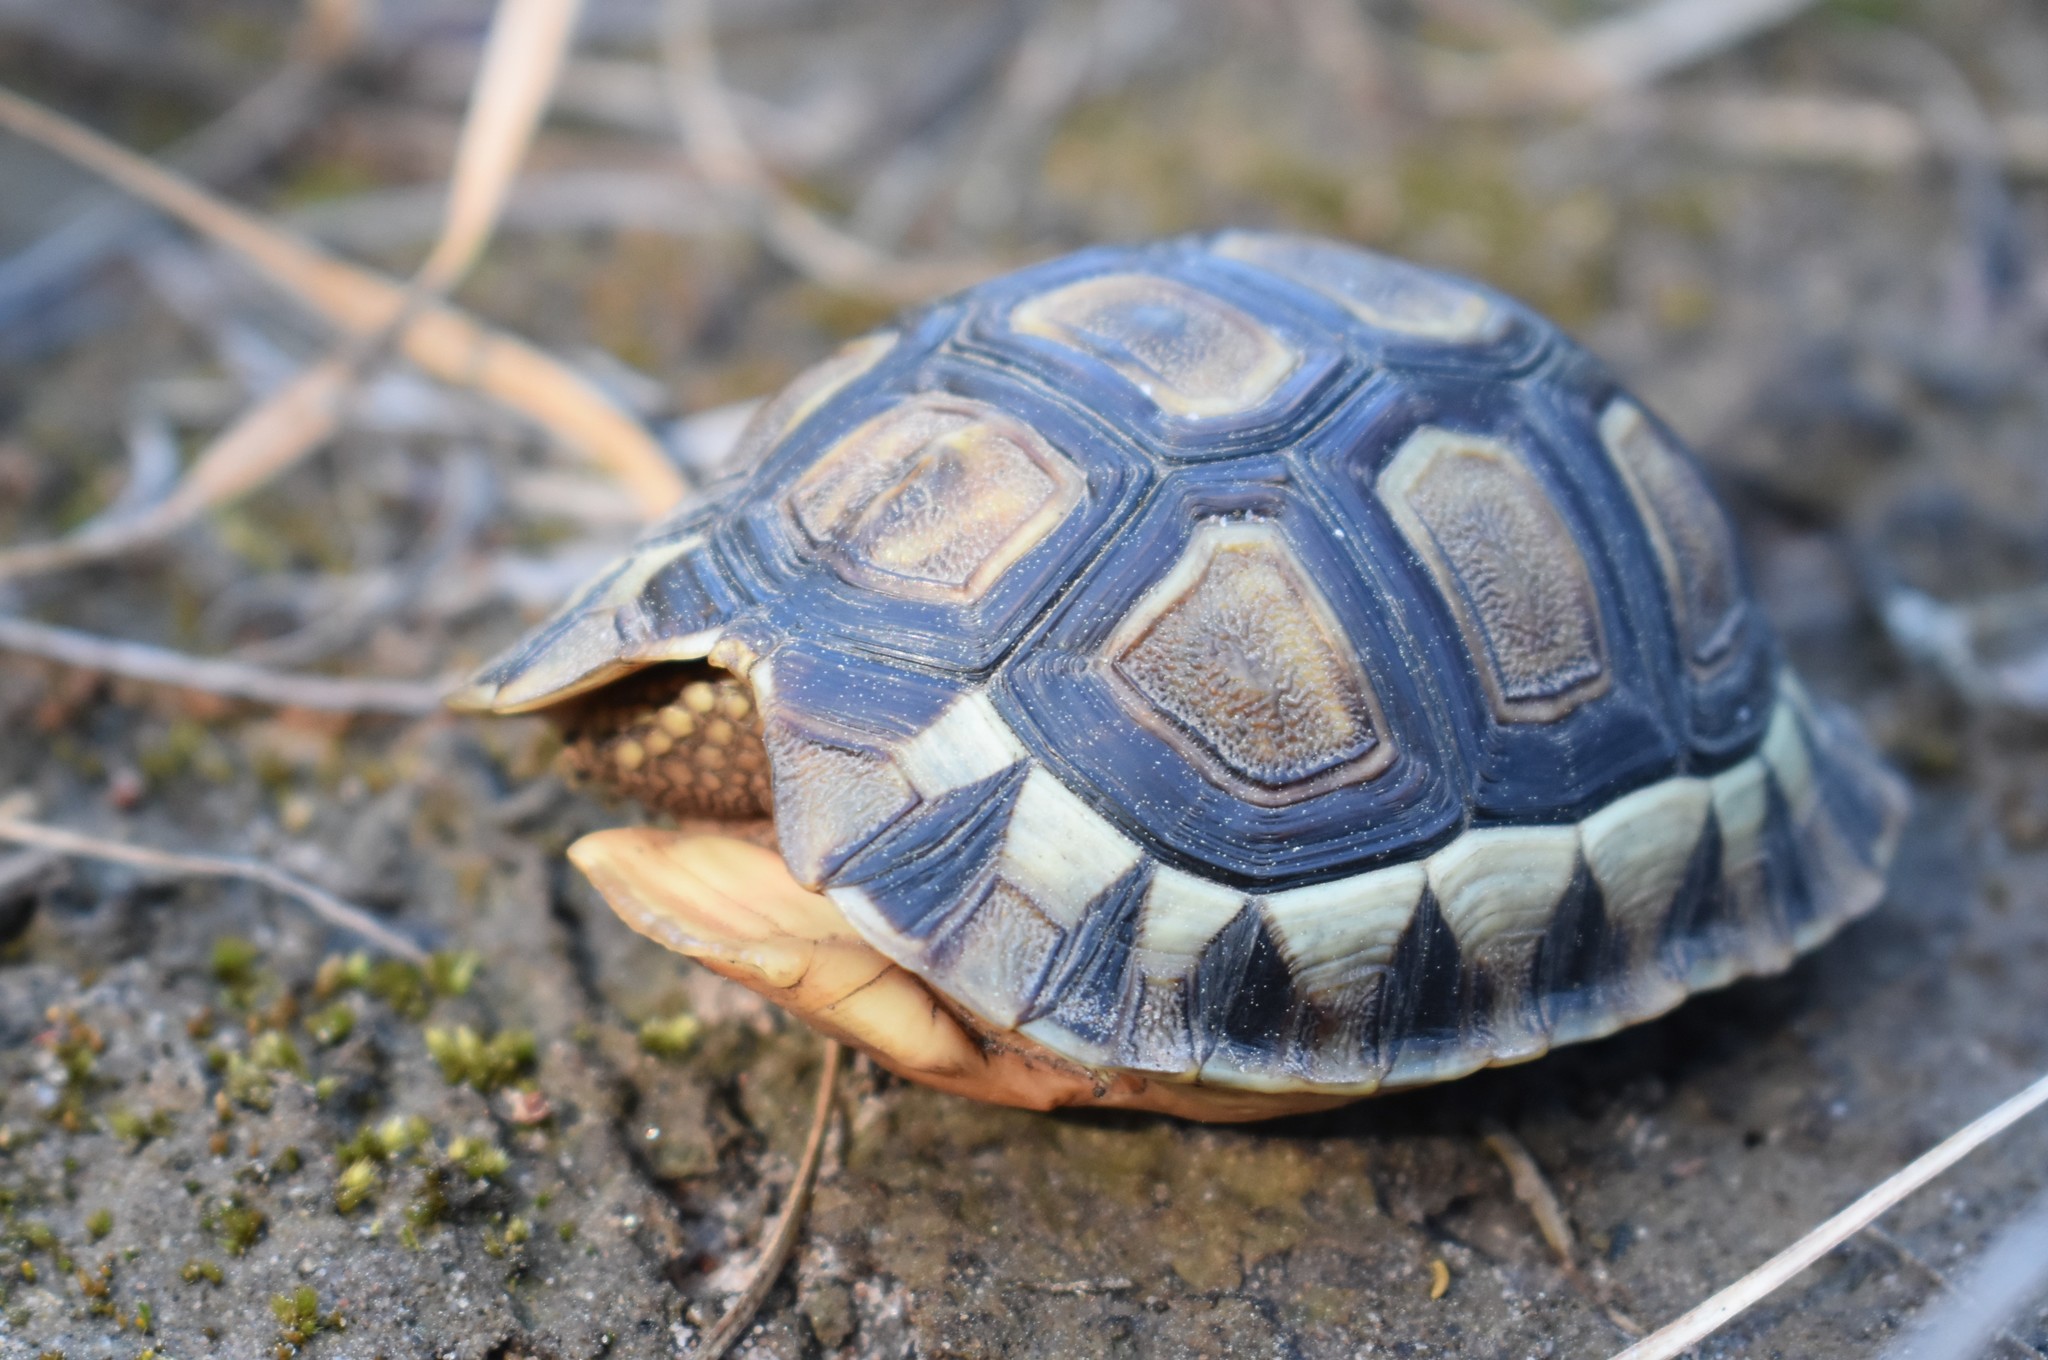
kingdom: Animalia
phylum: Chordata
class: Testudines
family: Testudinidae
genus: Chersina
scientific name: Chersina angulata
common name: South african bowsprit tortoise
